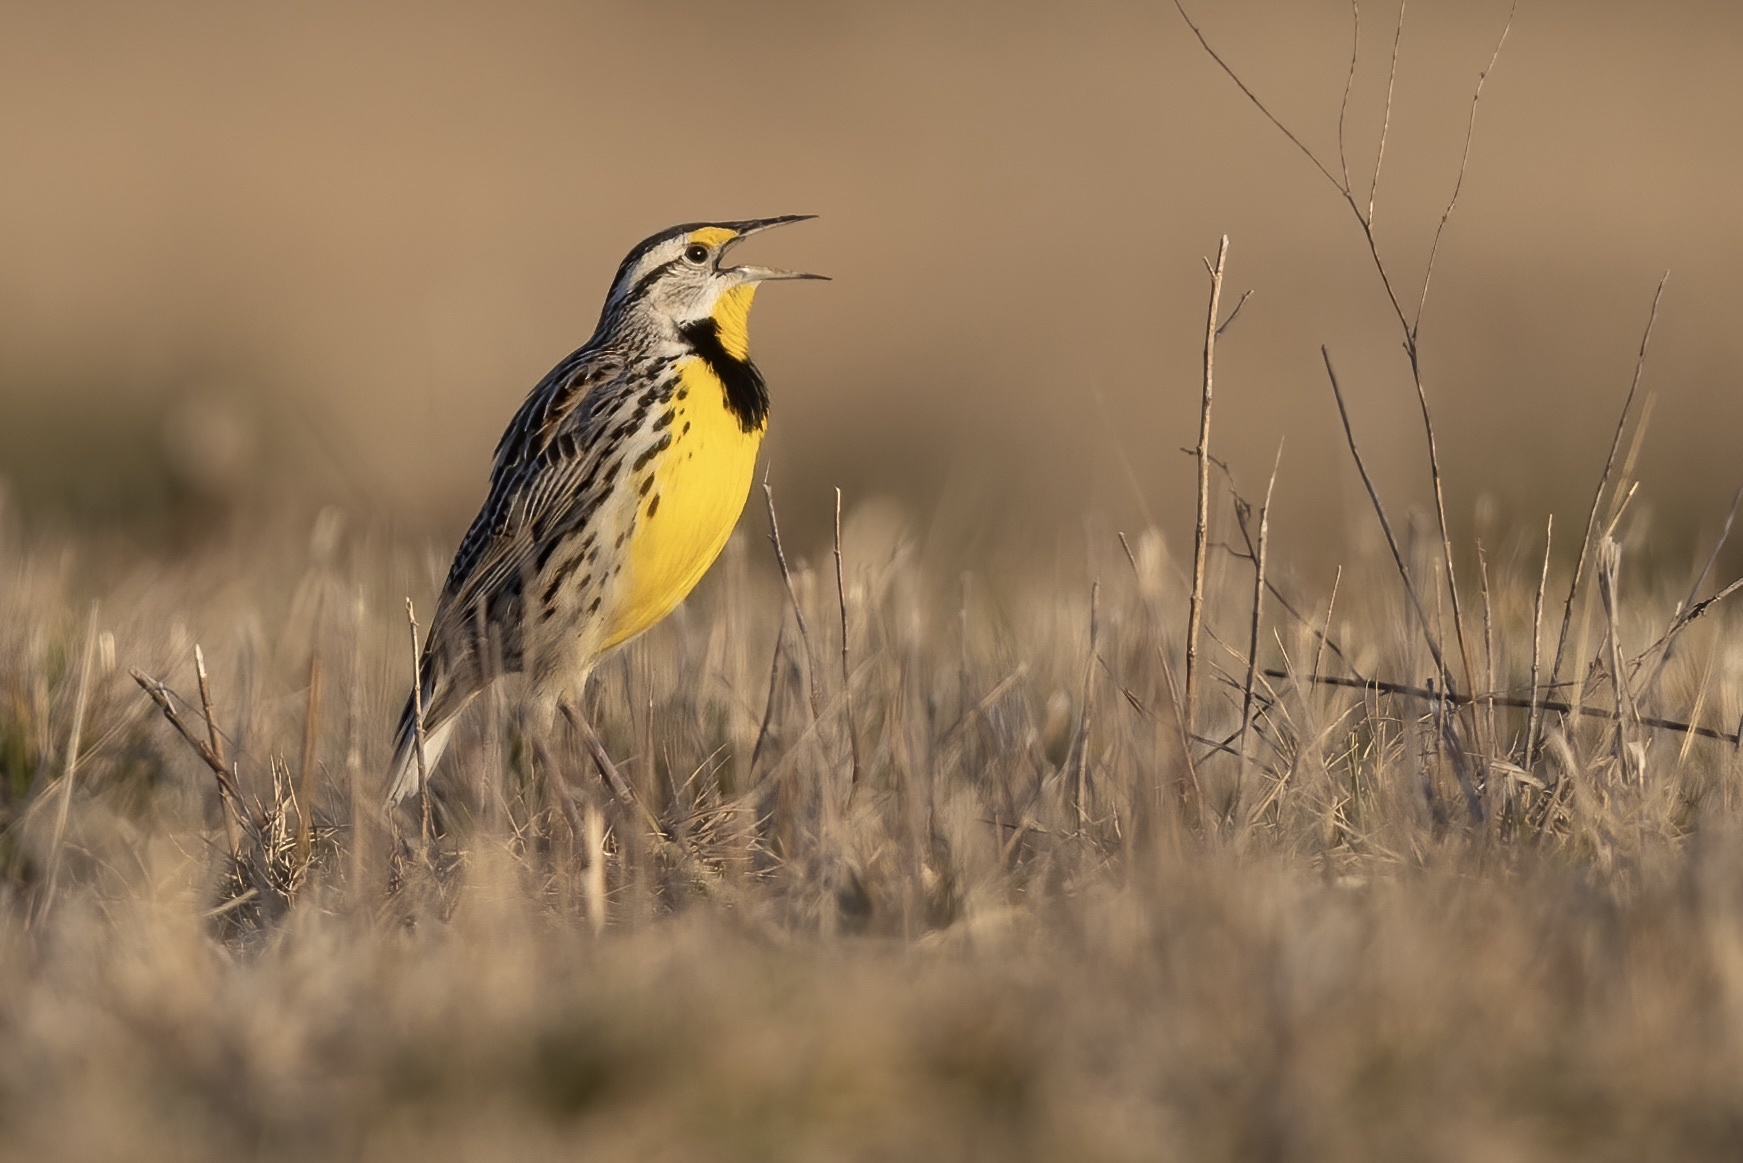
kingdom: Animalia
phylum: Chordata
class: Aves
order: Passeriformes
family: Icteridae
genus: Sturnella
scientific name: Sturnella magna
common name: Eastern meadowlark
